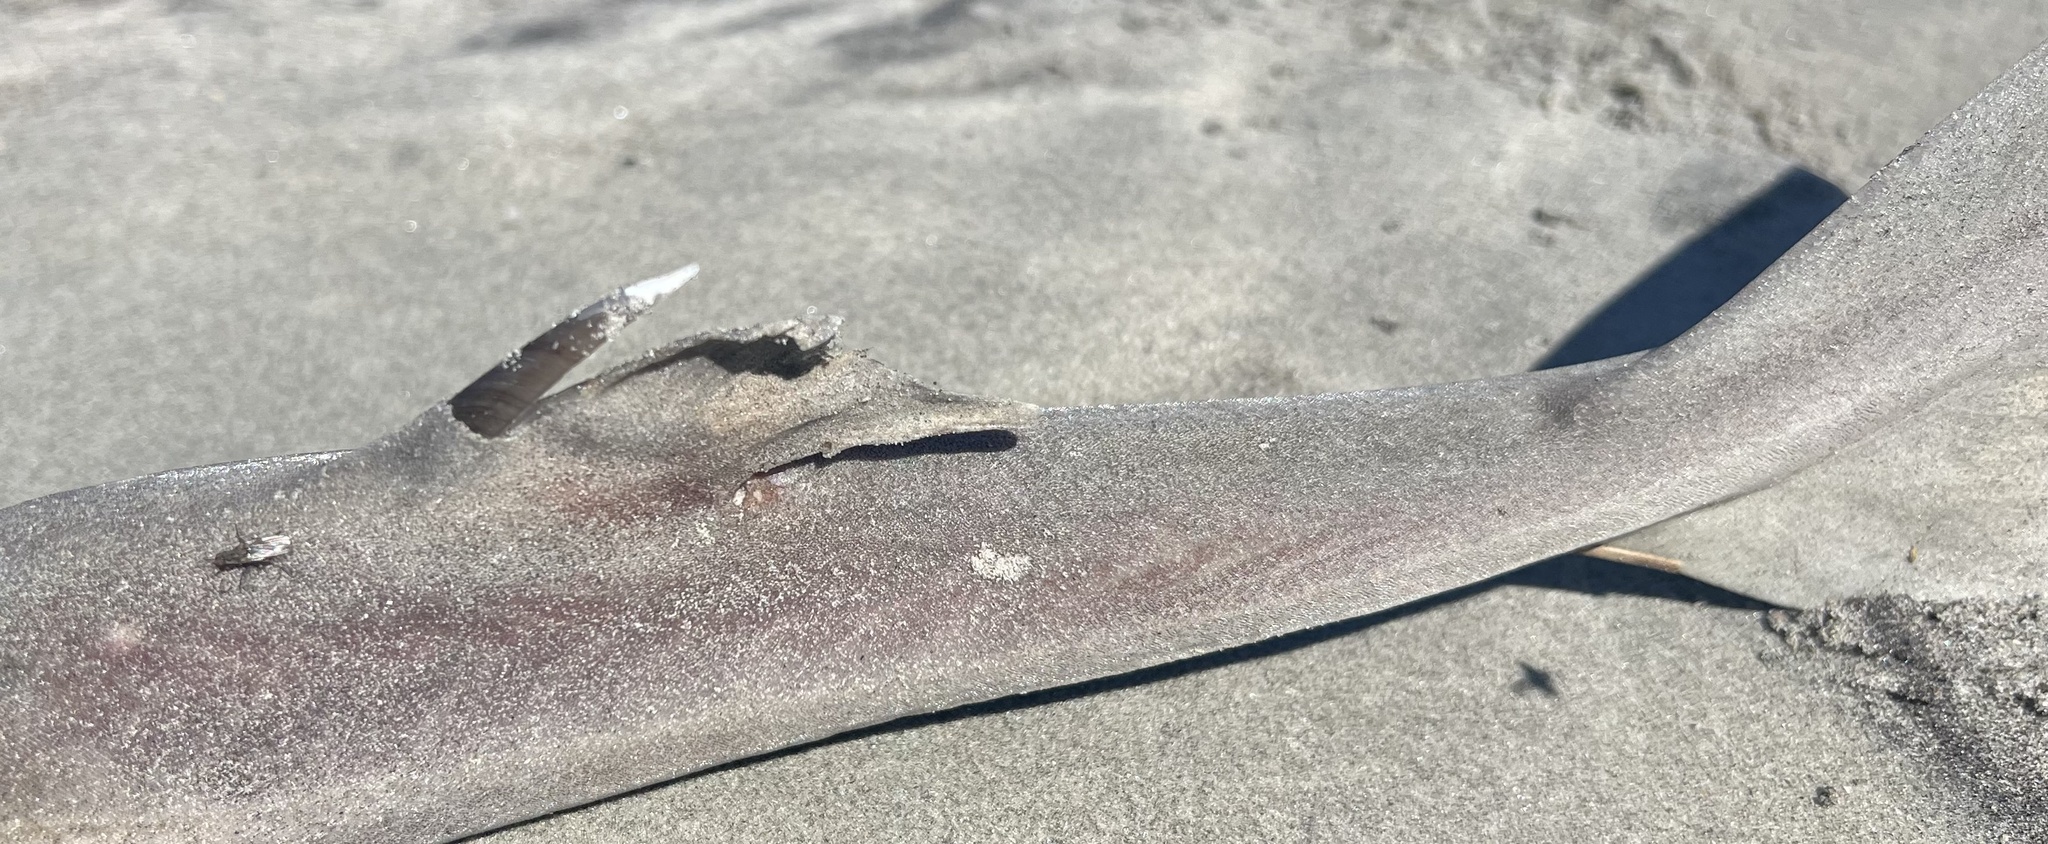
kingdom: Animalia
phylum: Chordata
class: Elasmobranchii
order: Squaliformes
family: Squalidae
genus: Squalus
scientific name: Squalus acanthias
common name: Spurdog
